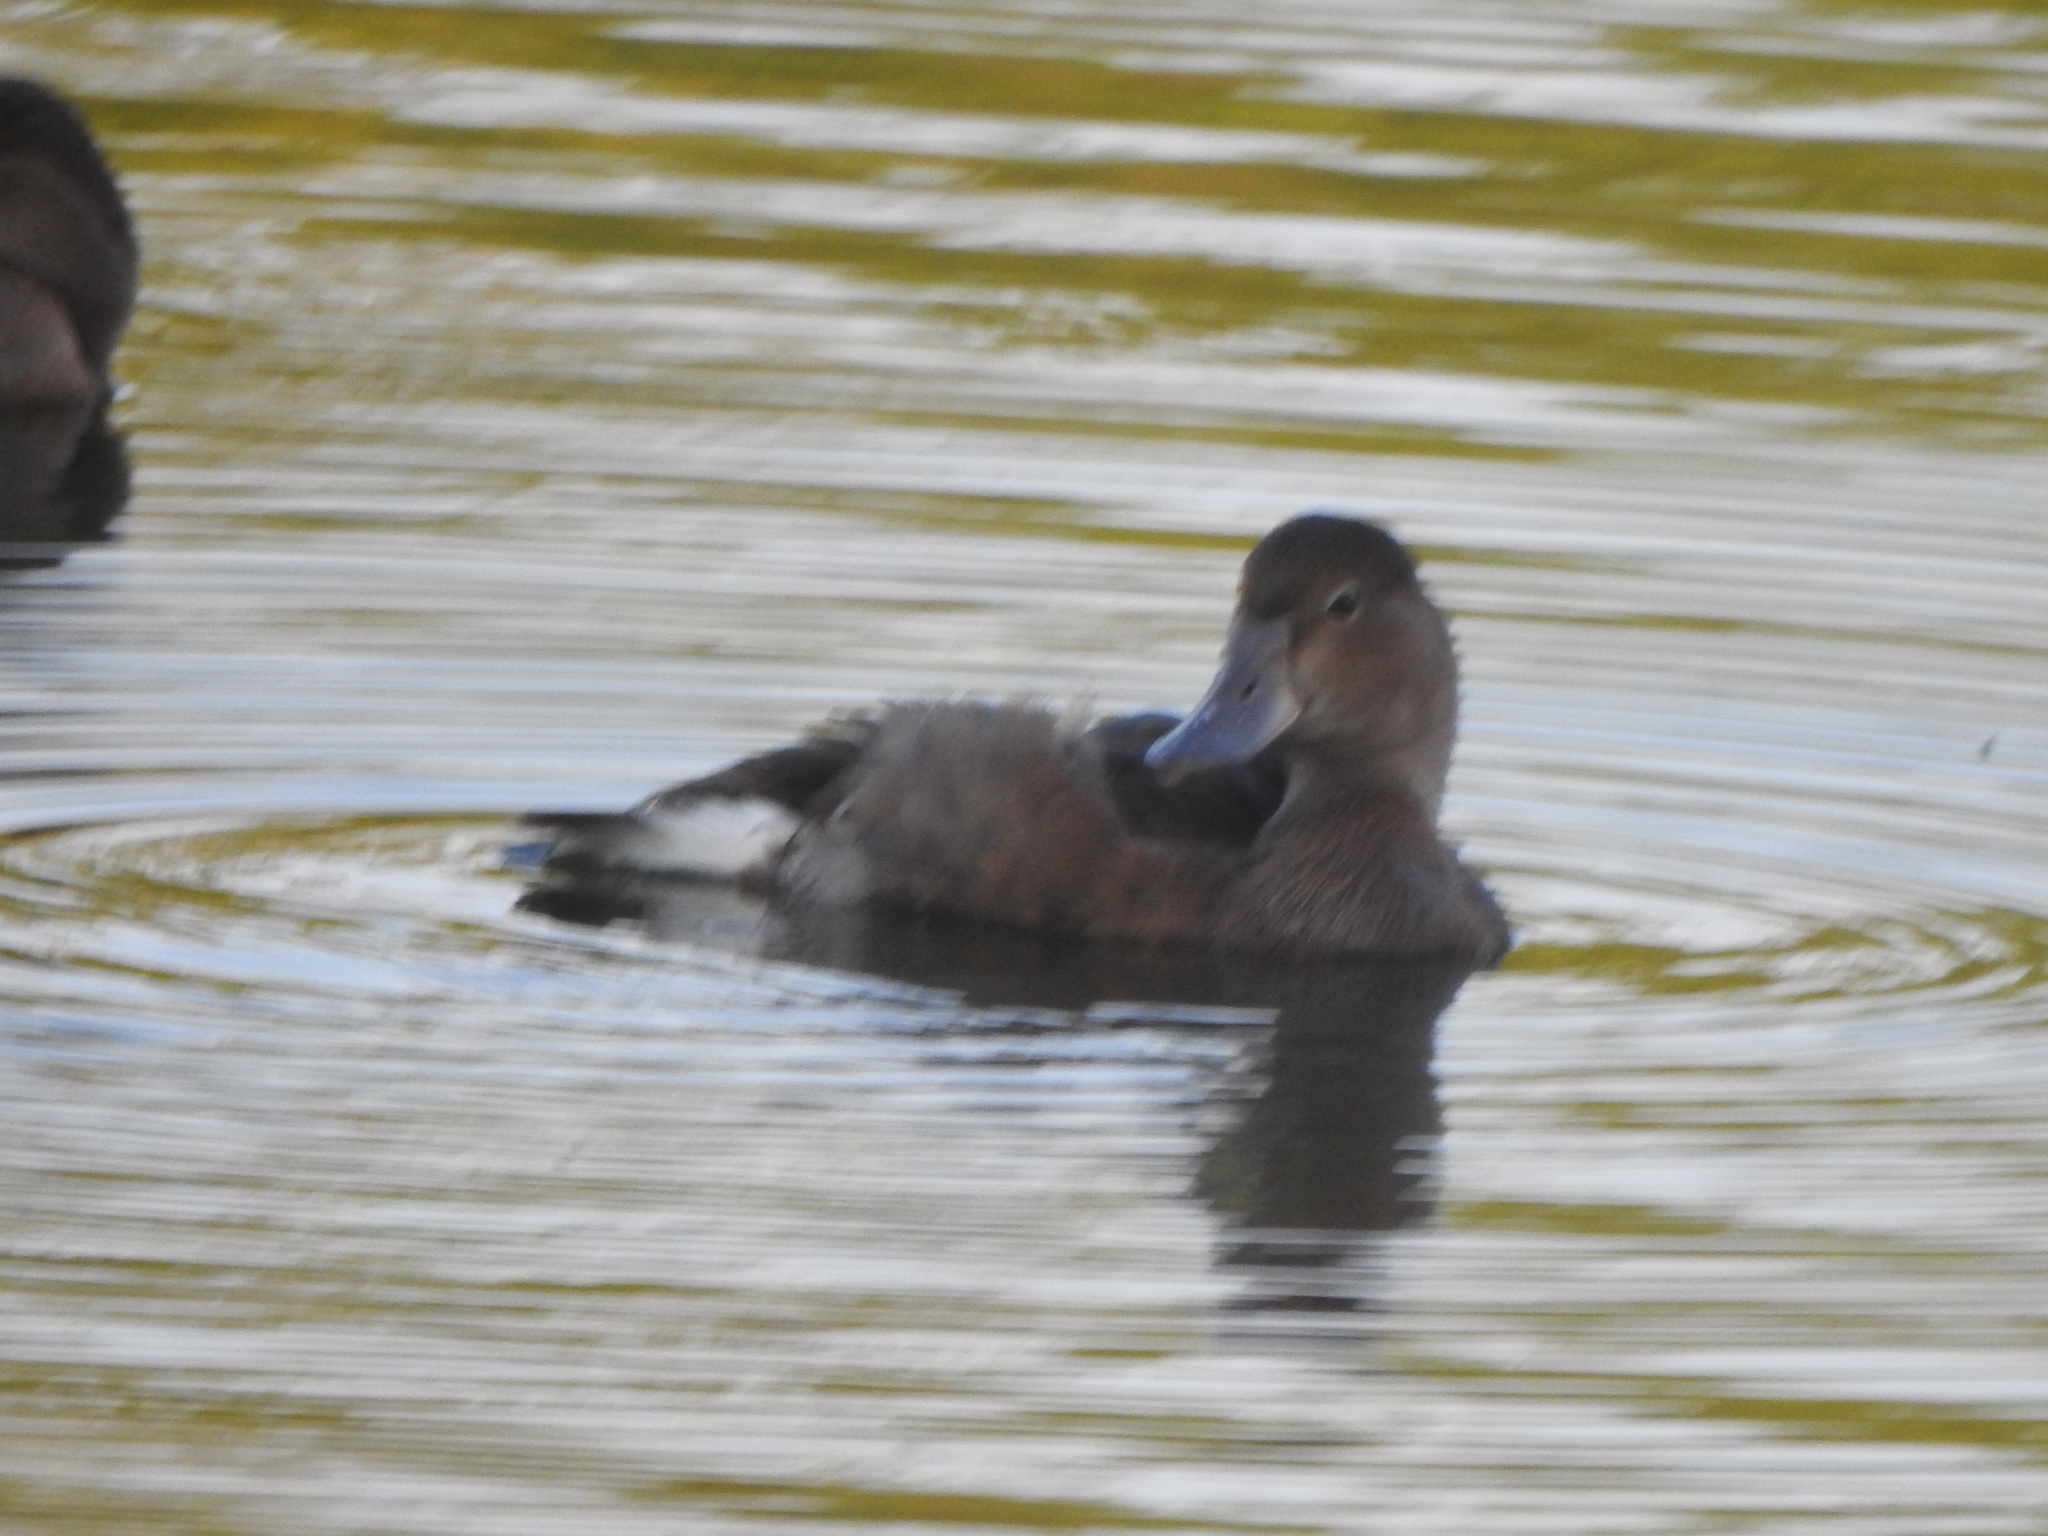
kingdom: Animalia
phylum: Chordata
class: Aves
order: Anseriformes
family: Anatidae
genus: Netta
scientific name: Netta peposaca
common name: Rosy-billed pochard
